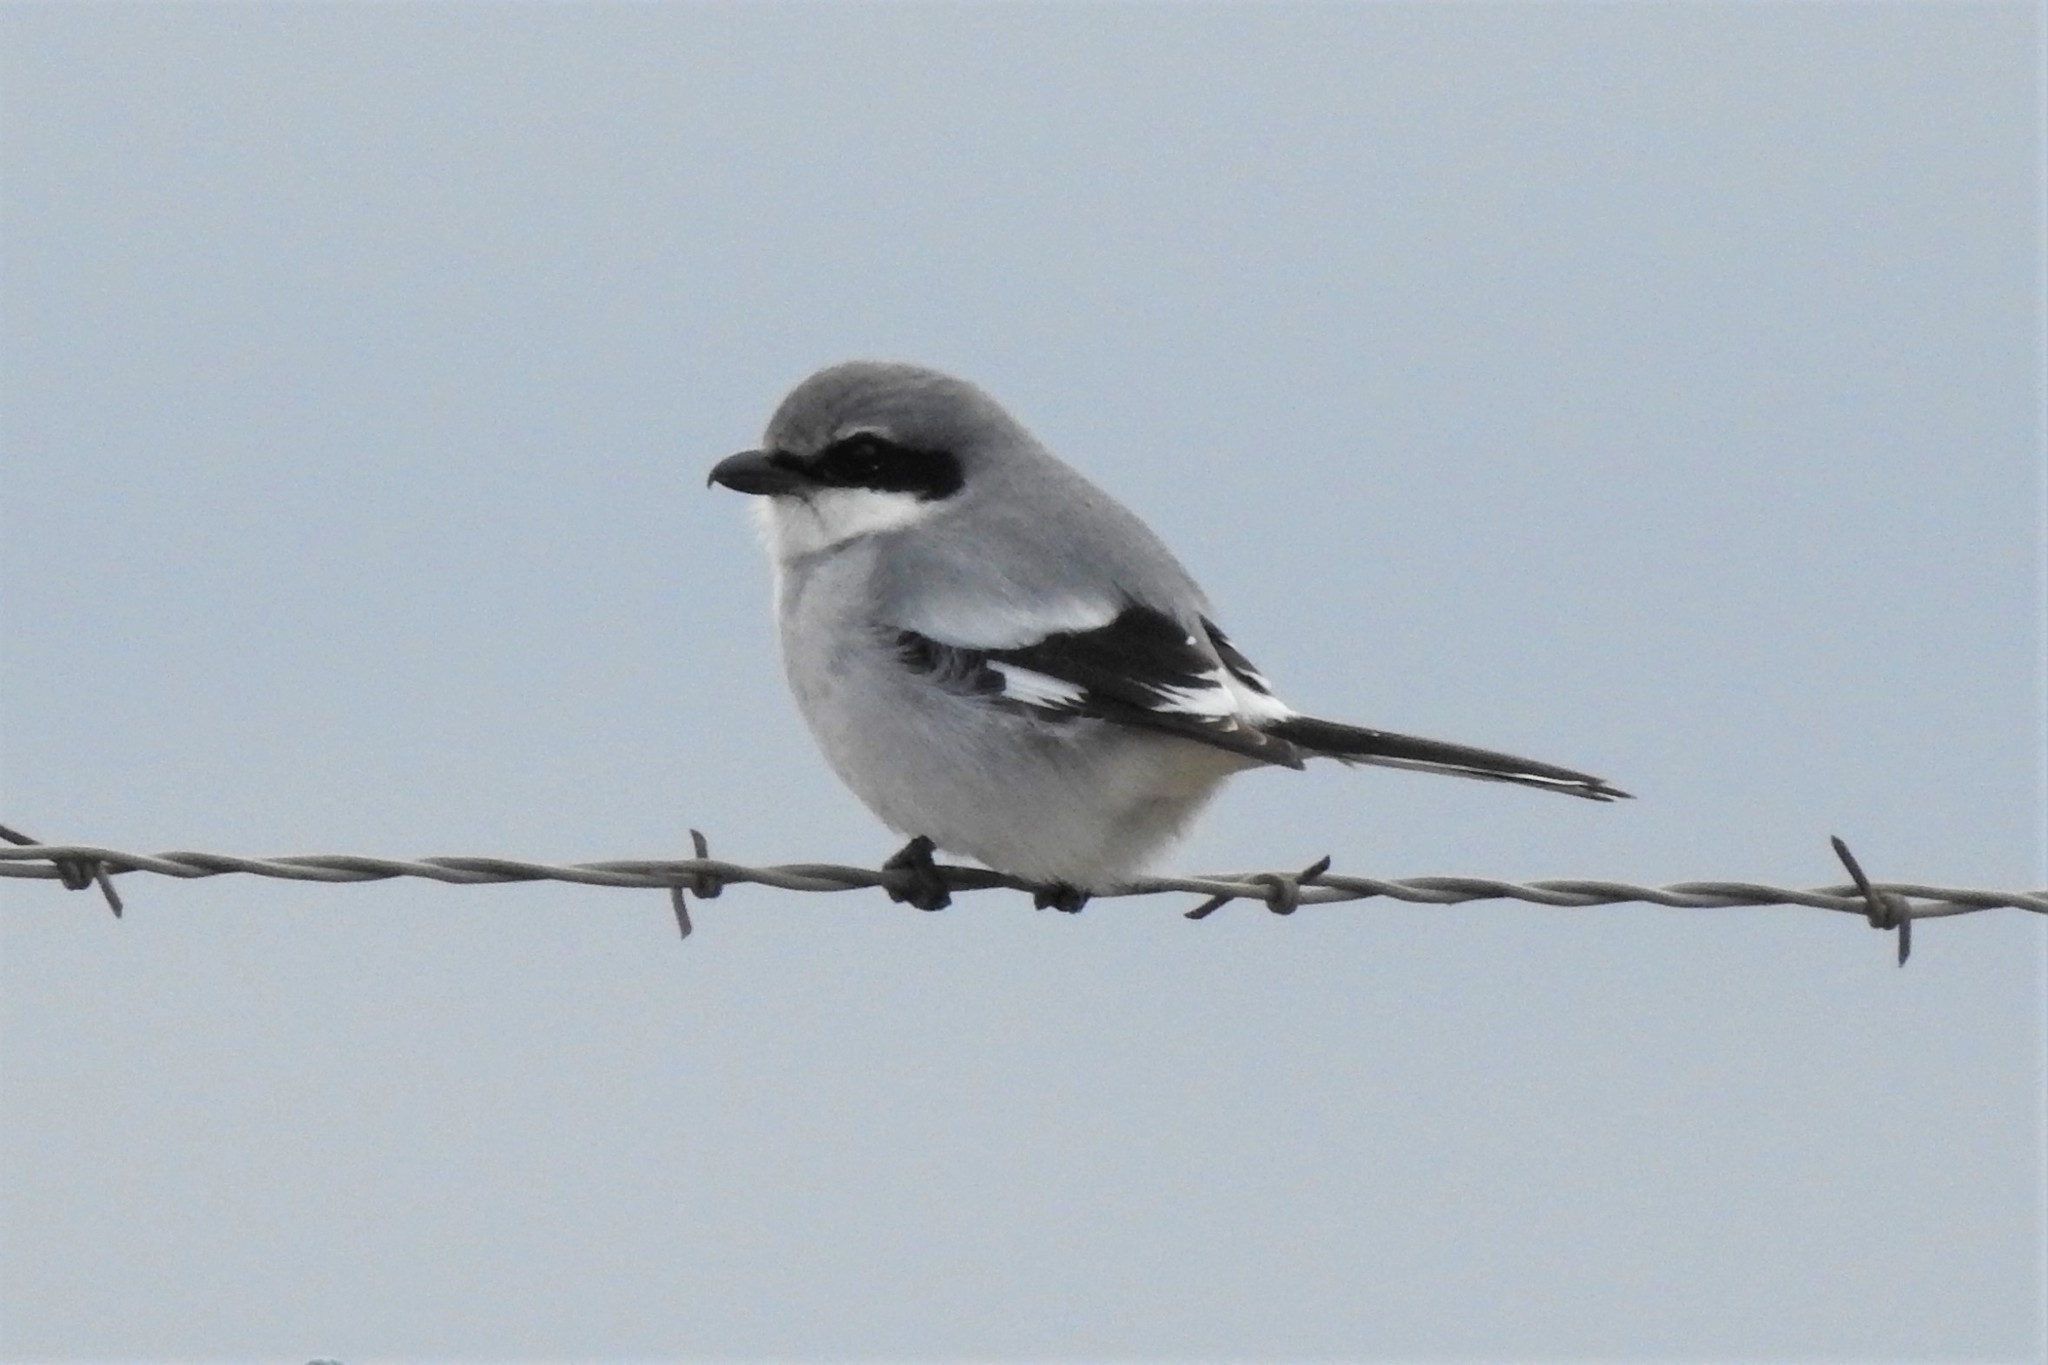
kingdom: Animalia
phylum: Chordata
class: Aves
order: Passeriformes
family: Laniidae
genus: Lanius
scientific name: Lanius ludovicianus
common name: Loggerhead shrike
